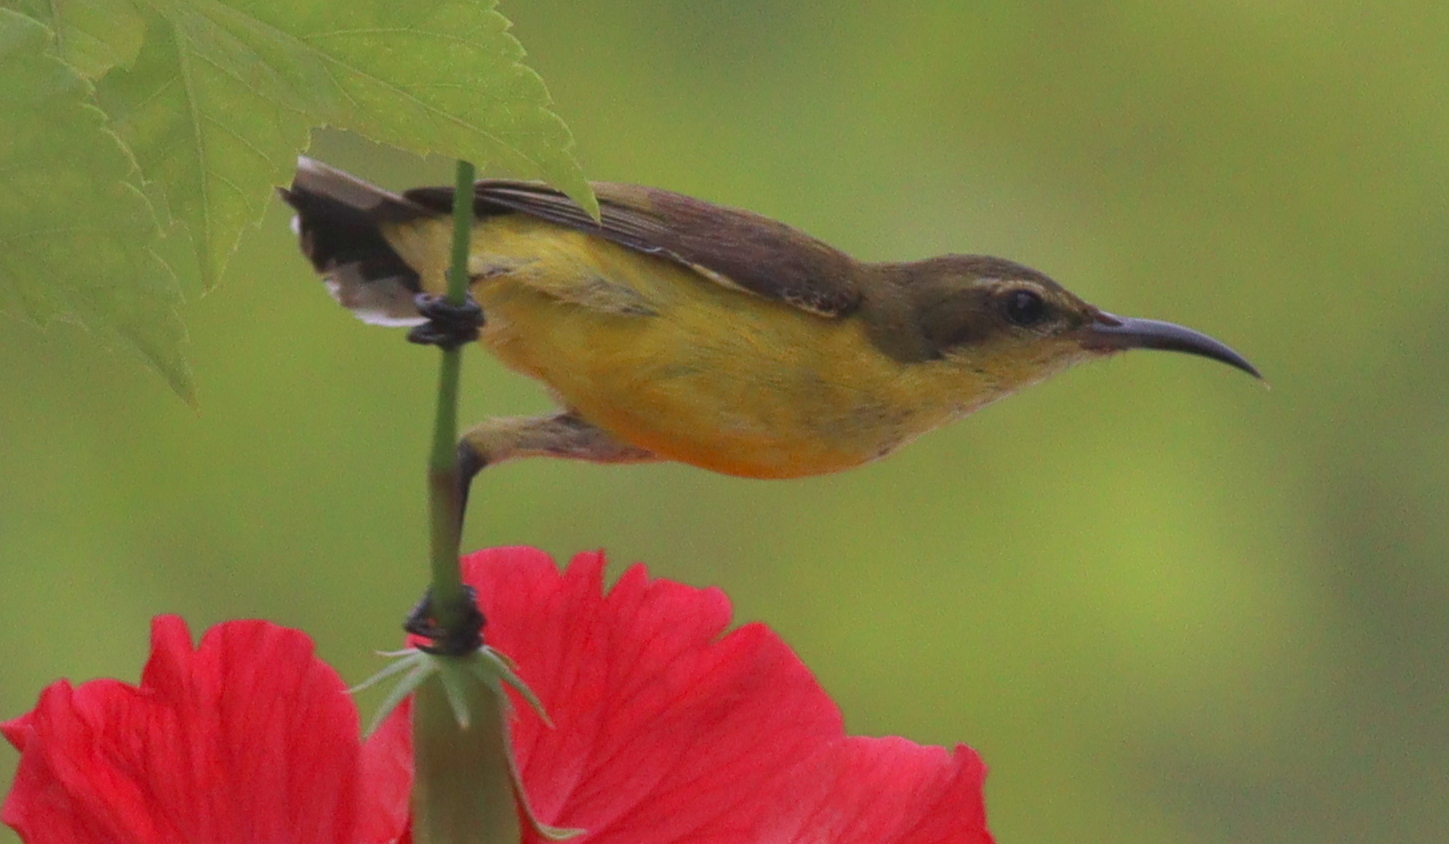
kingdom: Animalia
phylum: Chordata
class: Aves
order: Passeriformes
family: Nectariniidae
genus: Cinnyris
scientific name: Cinnyris
